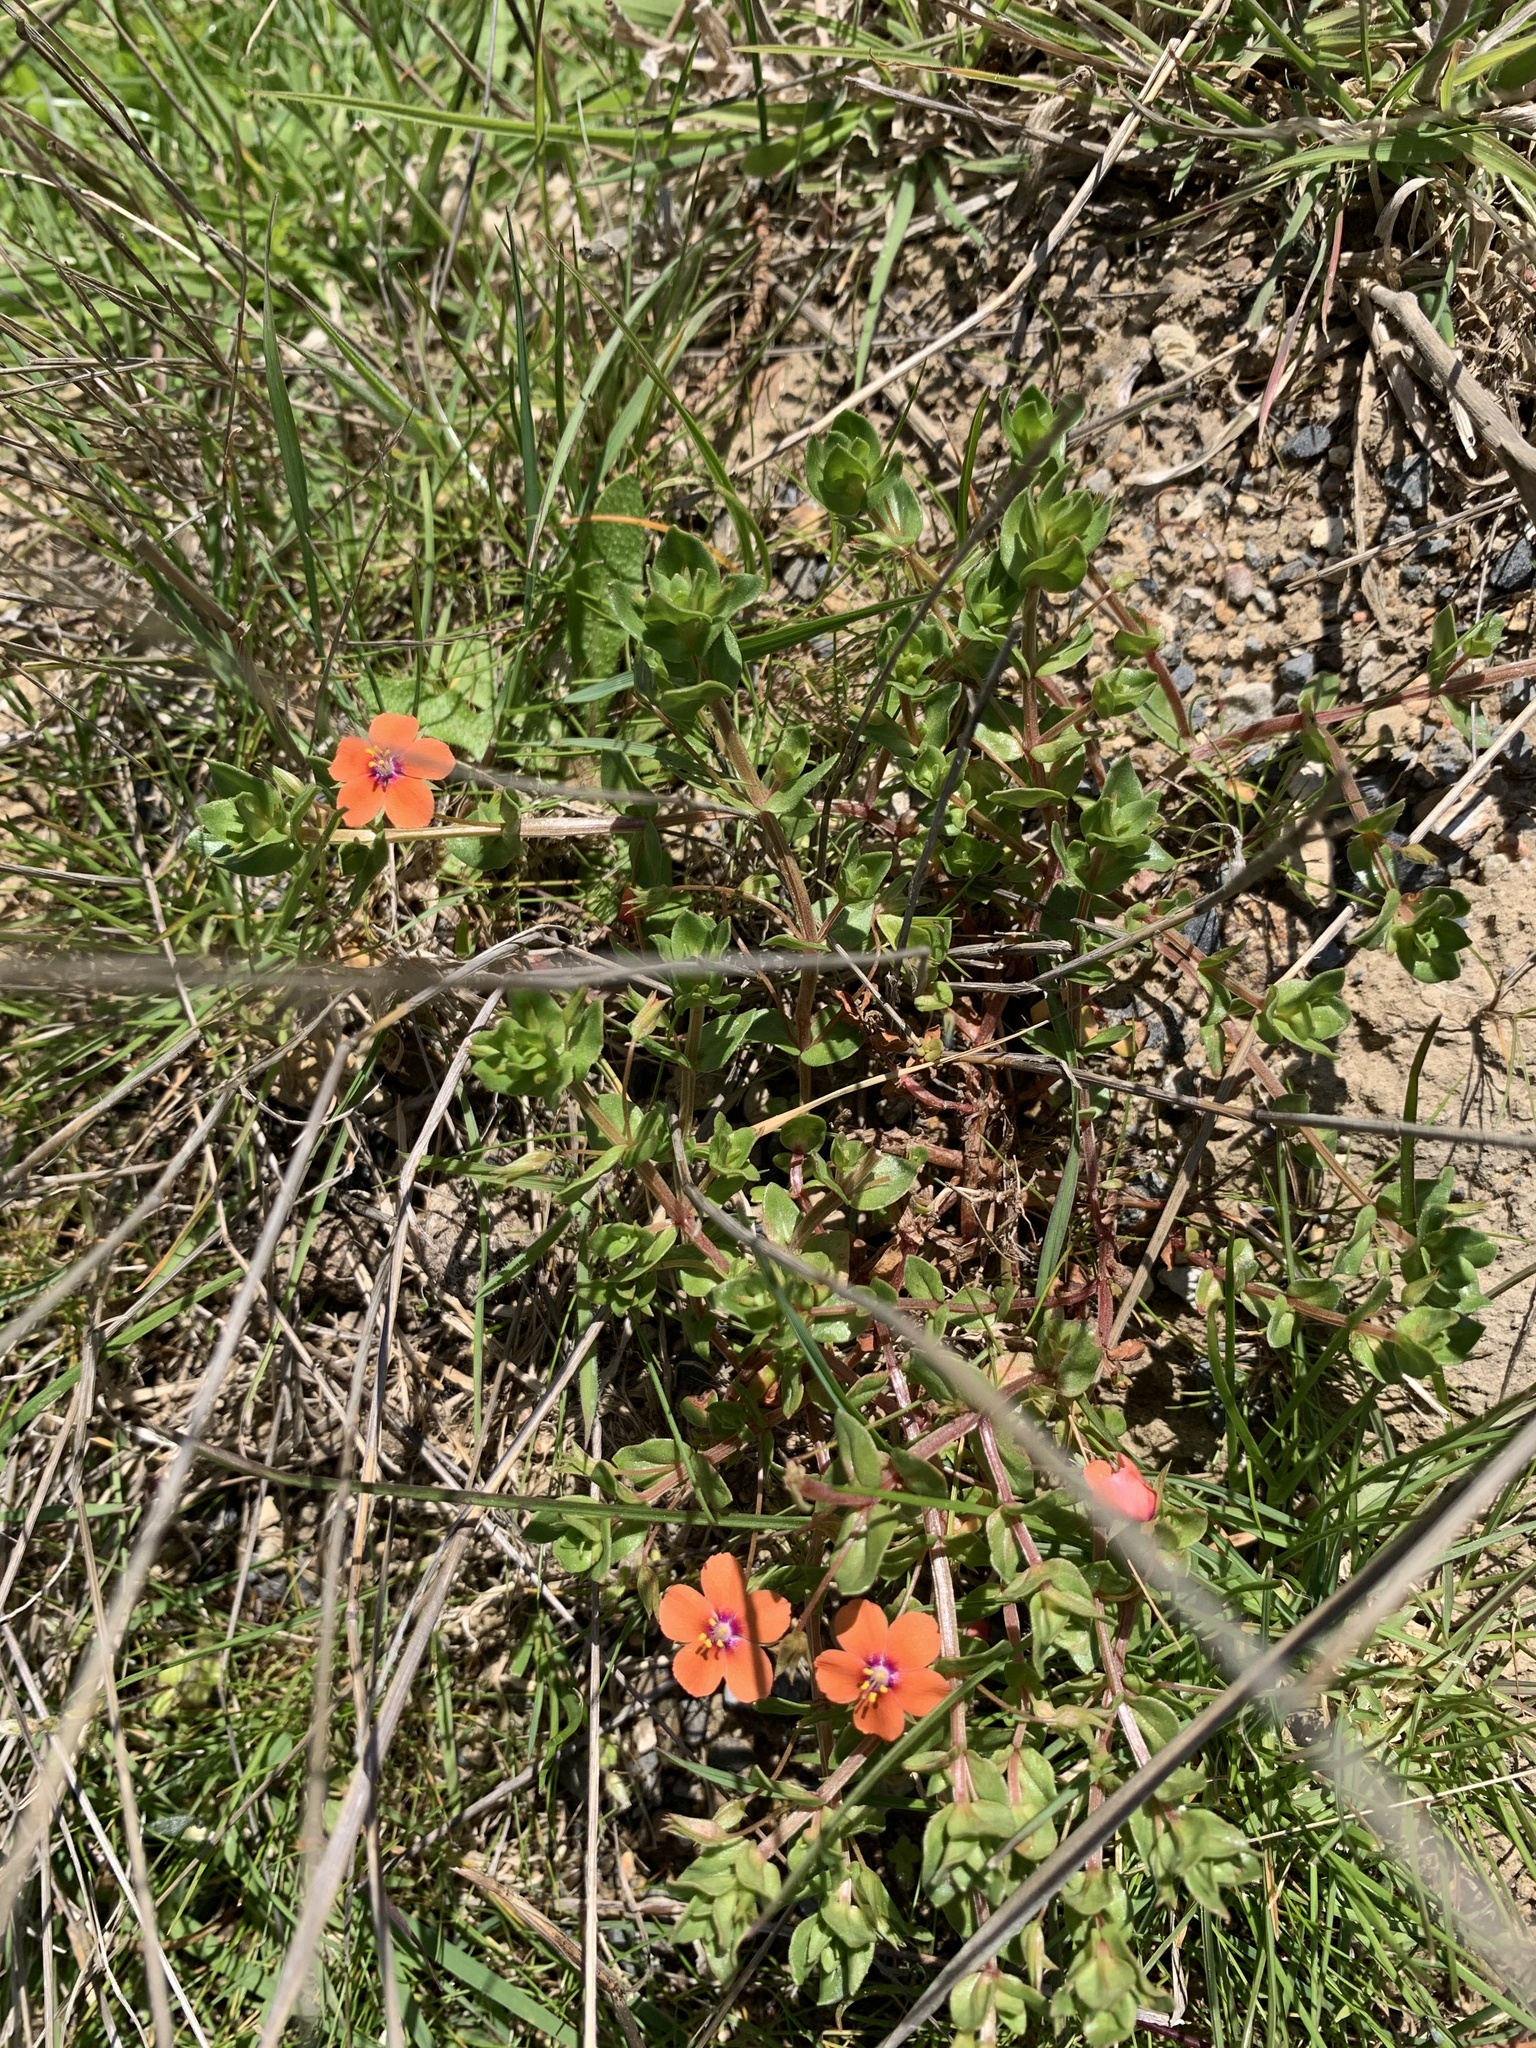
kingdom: Plantae
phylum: Tracheophyta
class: Magnoliopsida
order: Ericales
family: Primulaceae
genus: Lysimachia
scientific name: Lysimachia arvensis
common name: Scarlet pimpernel
